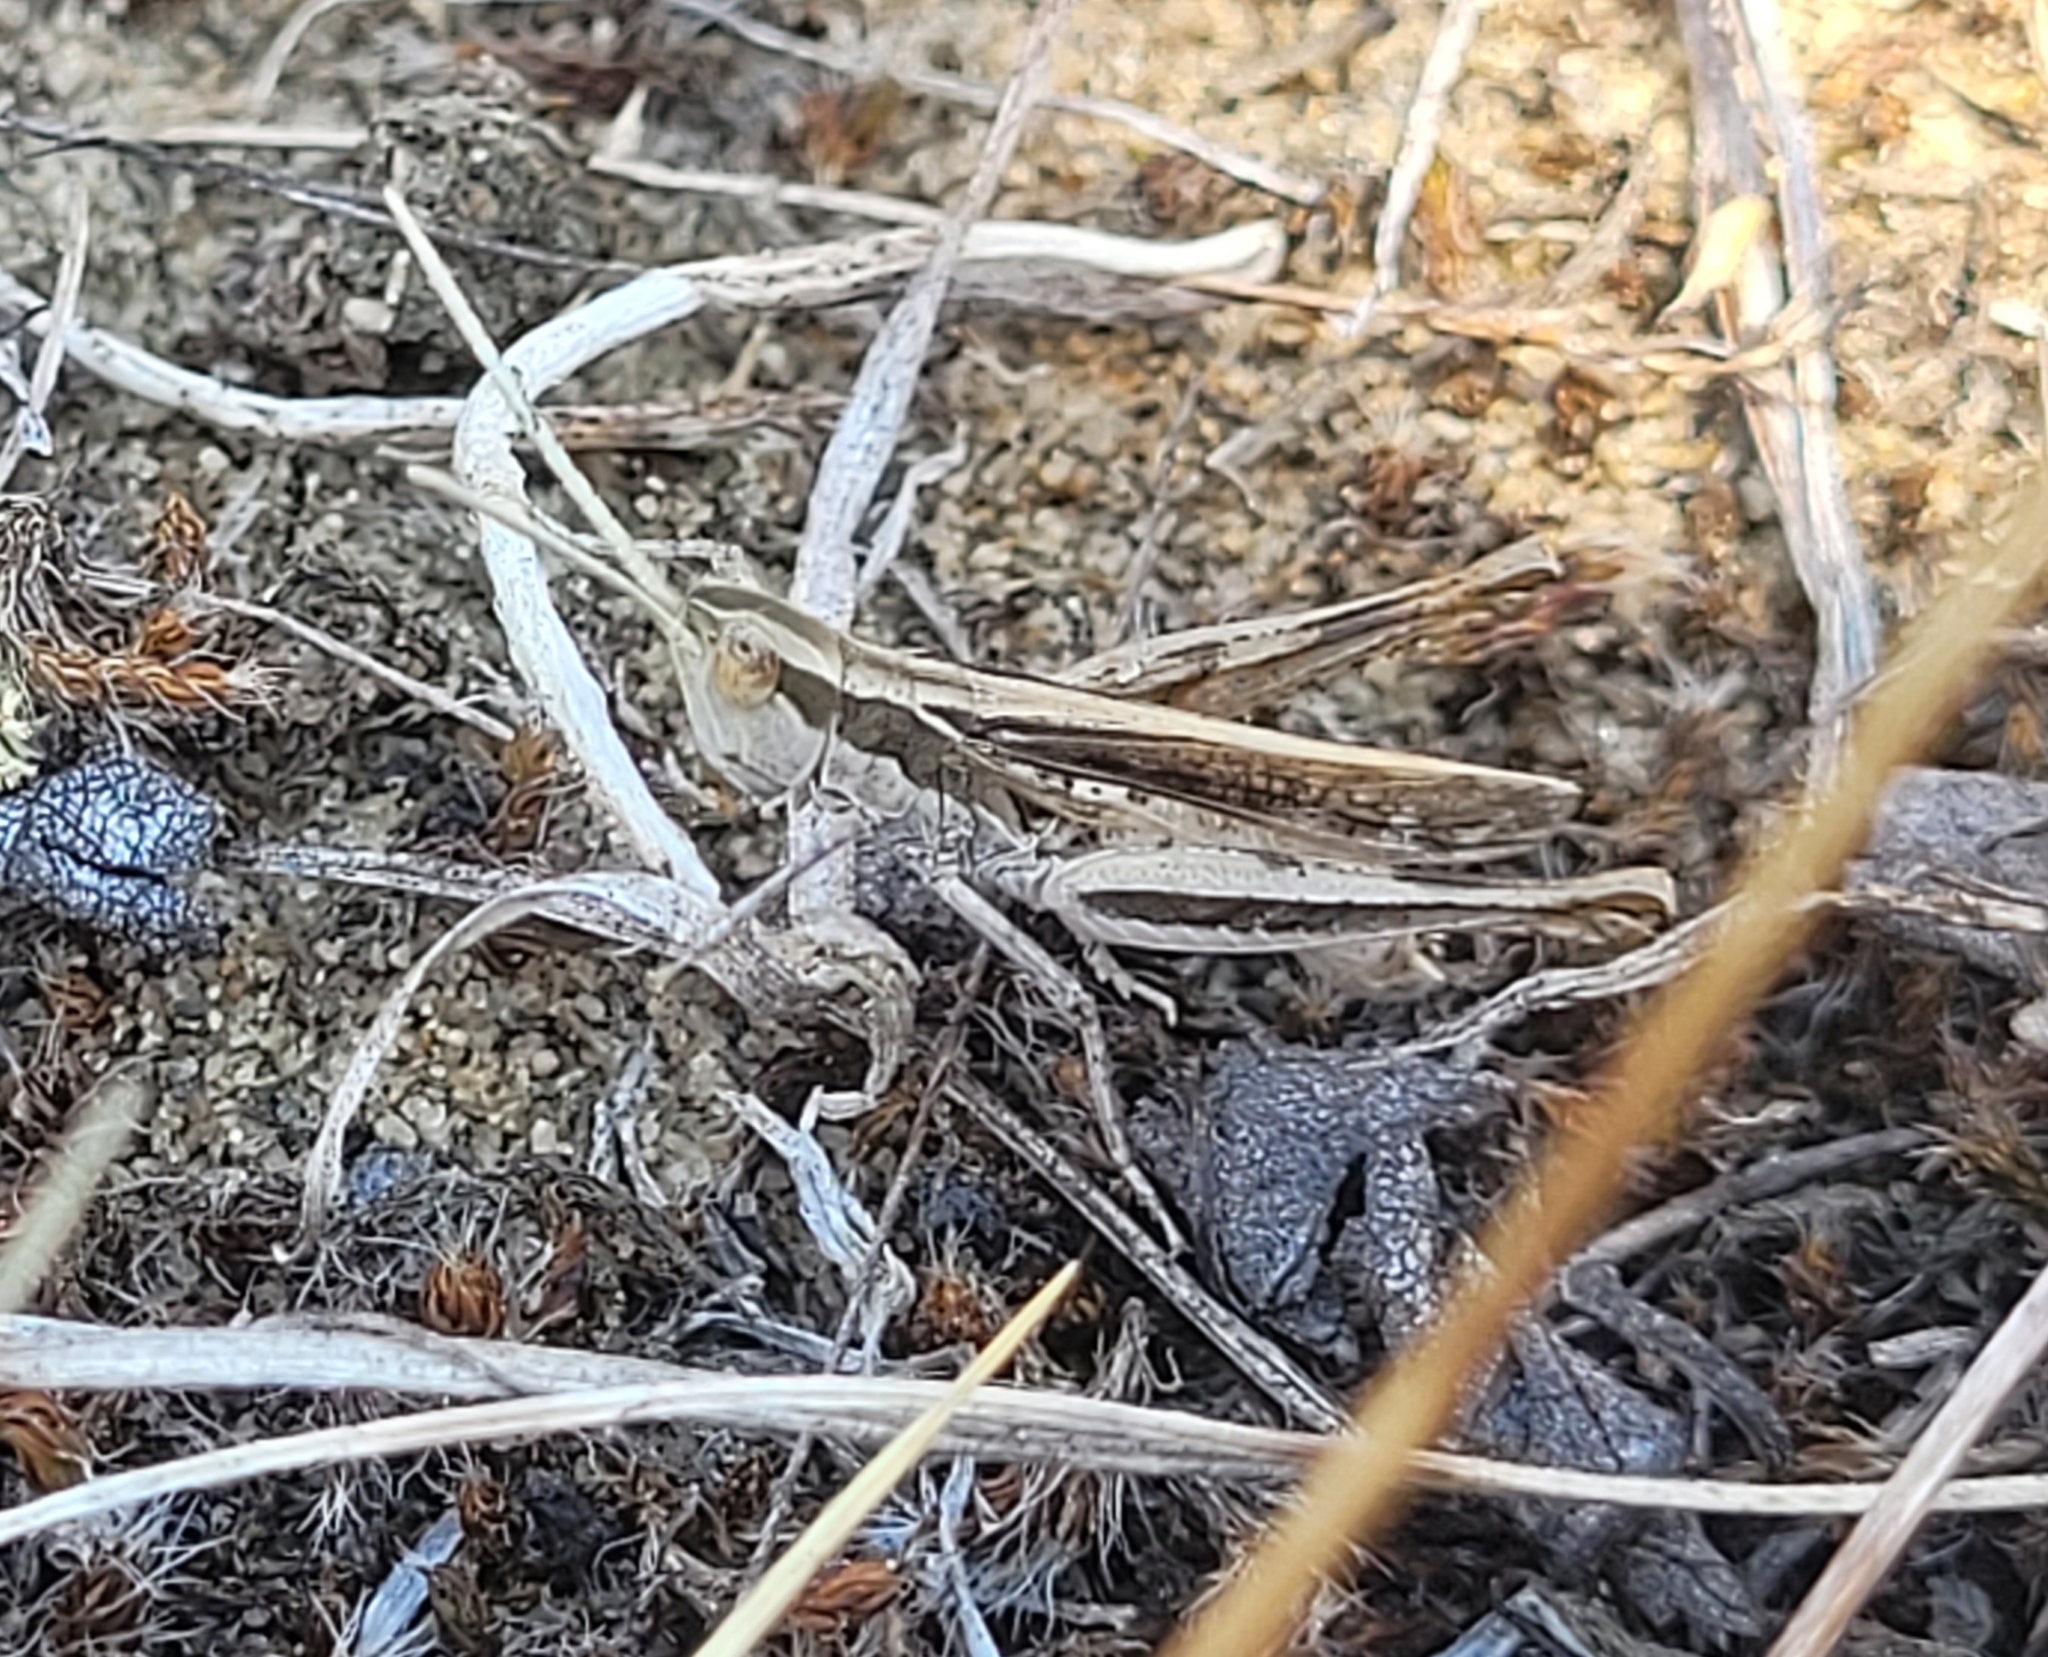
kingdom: Animalia
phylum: Arthropoda
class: Insecta
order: Orthoptera
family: Acrididae
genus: Cordillacris
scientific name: Cordillacris occipitalis
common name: Spotted-winged grasshopper
